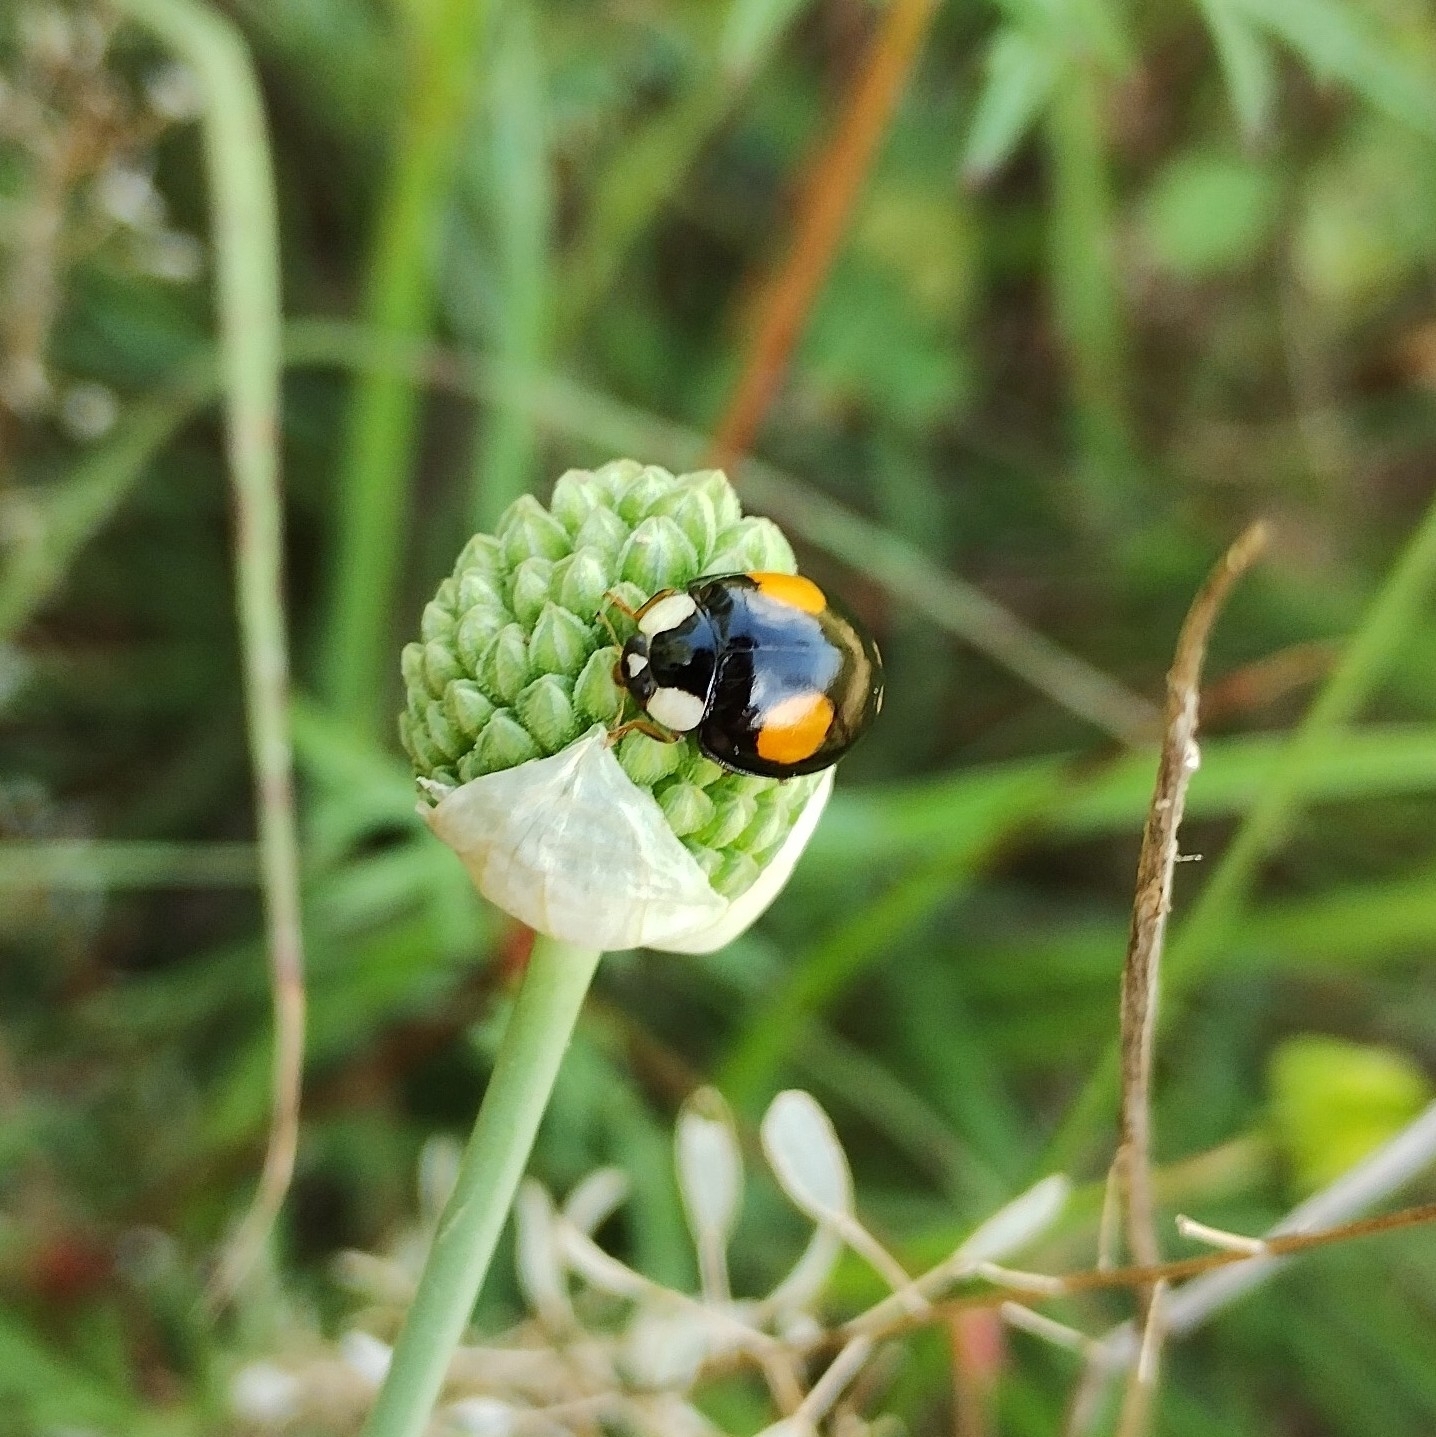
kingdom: Animalia
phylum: Arthropoda
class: Insecta
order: Coleoptera
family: Coccinellidae
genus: Harmonia
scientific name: Harmonia axyridis
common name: Harlequin ladybird
